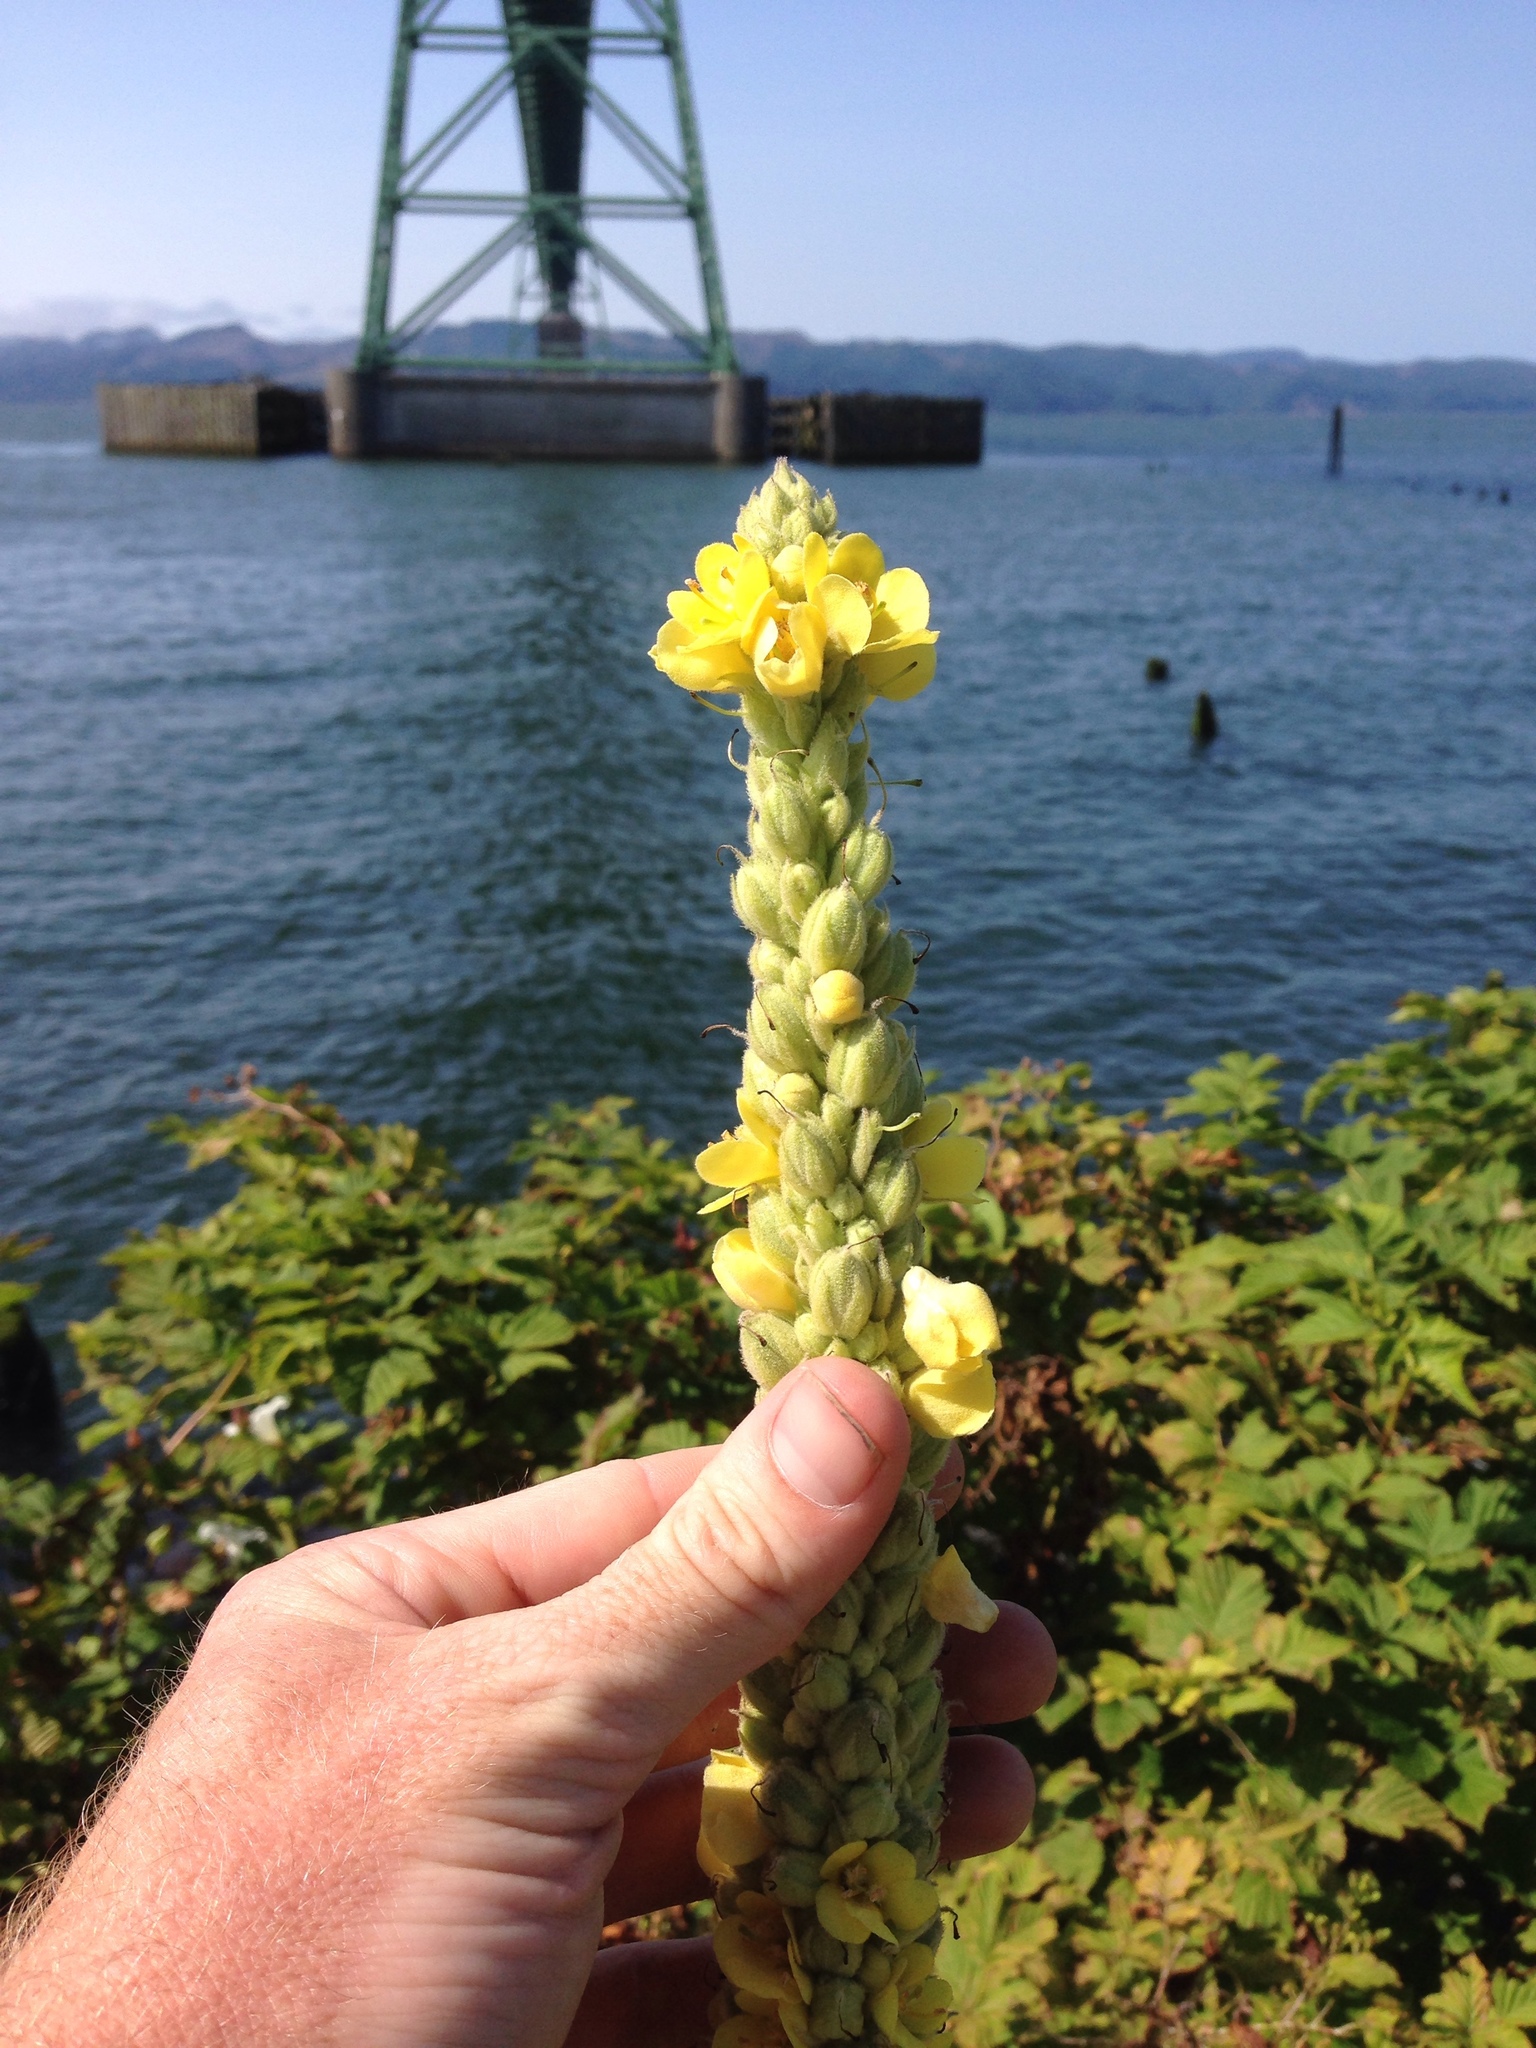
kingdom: Plantae
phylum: Tracheophyta
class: Magnoliopsida
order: Lamiales
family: Scrophulariaceae
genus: Verbascum
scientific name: Verbascum thapsus
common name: Common mullein
